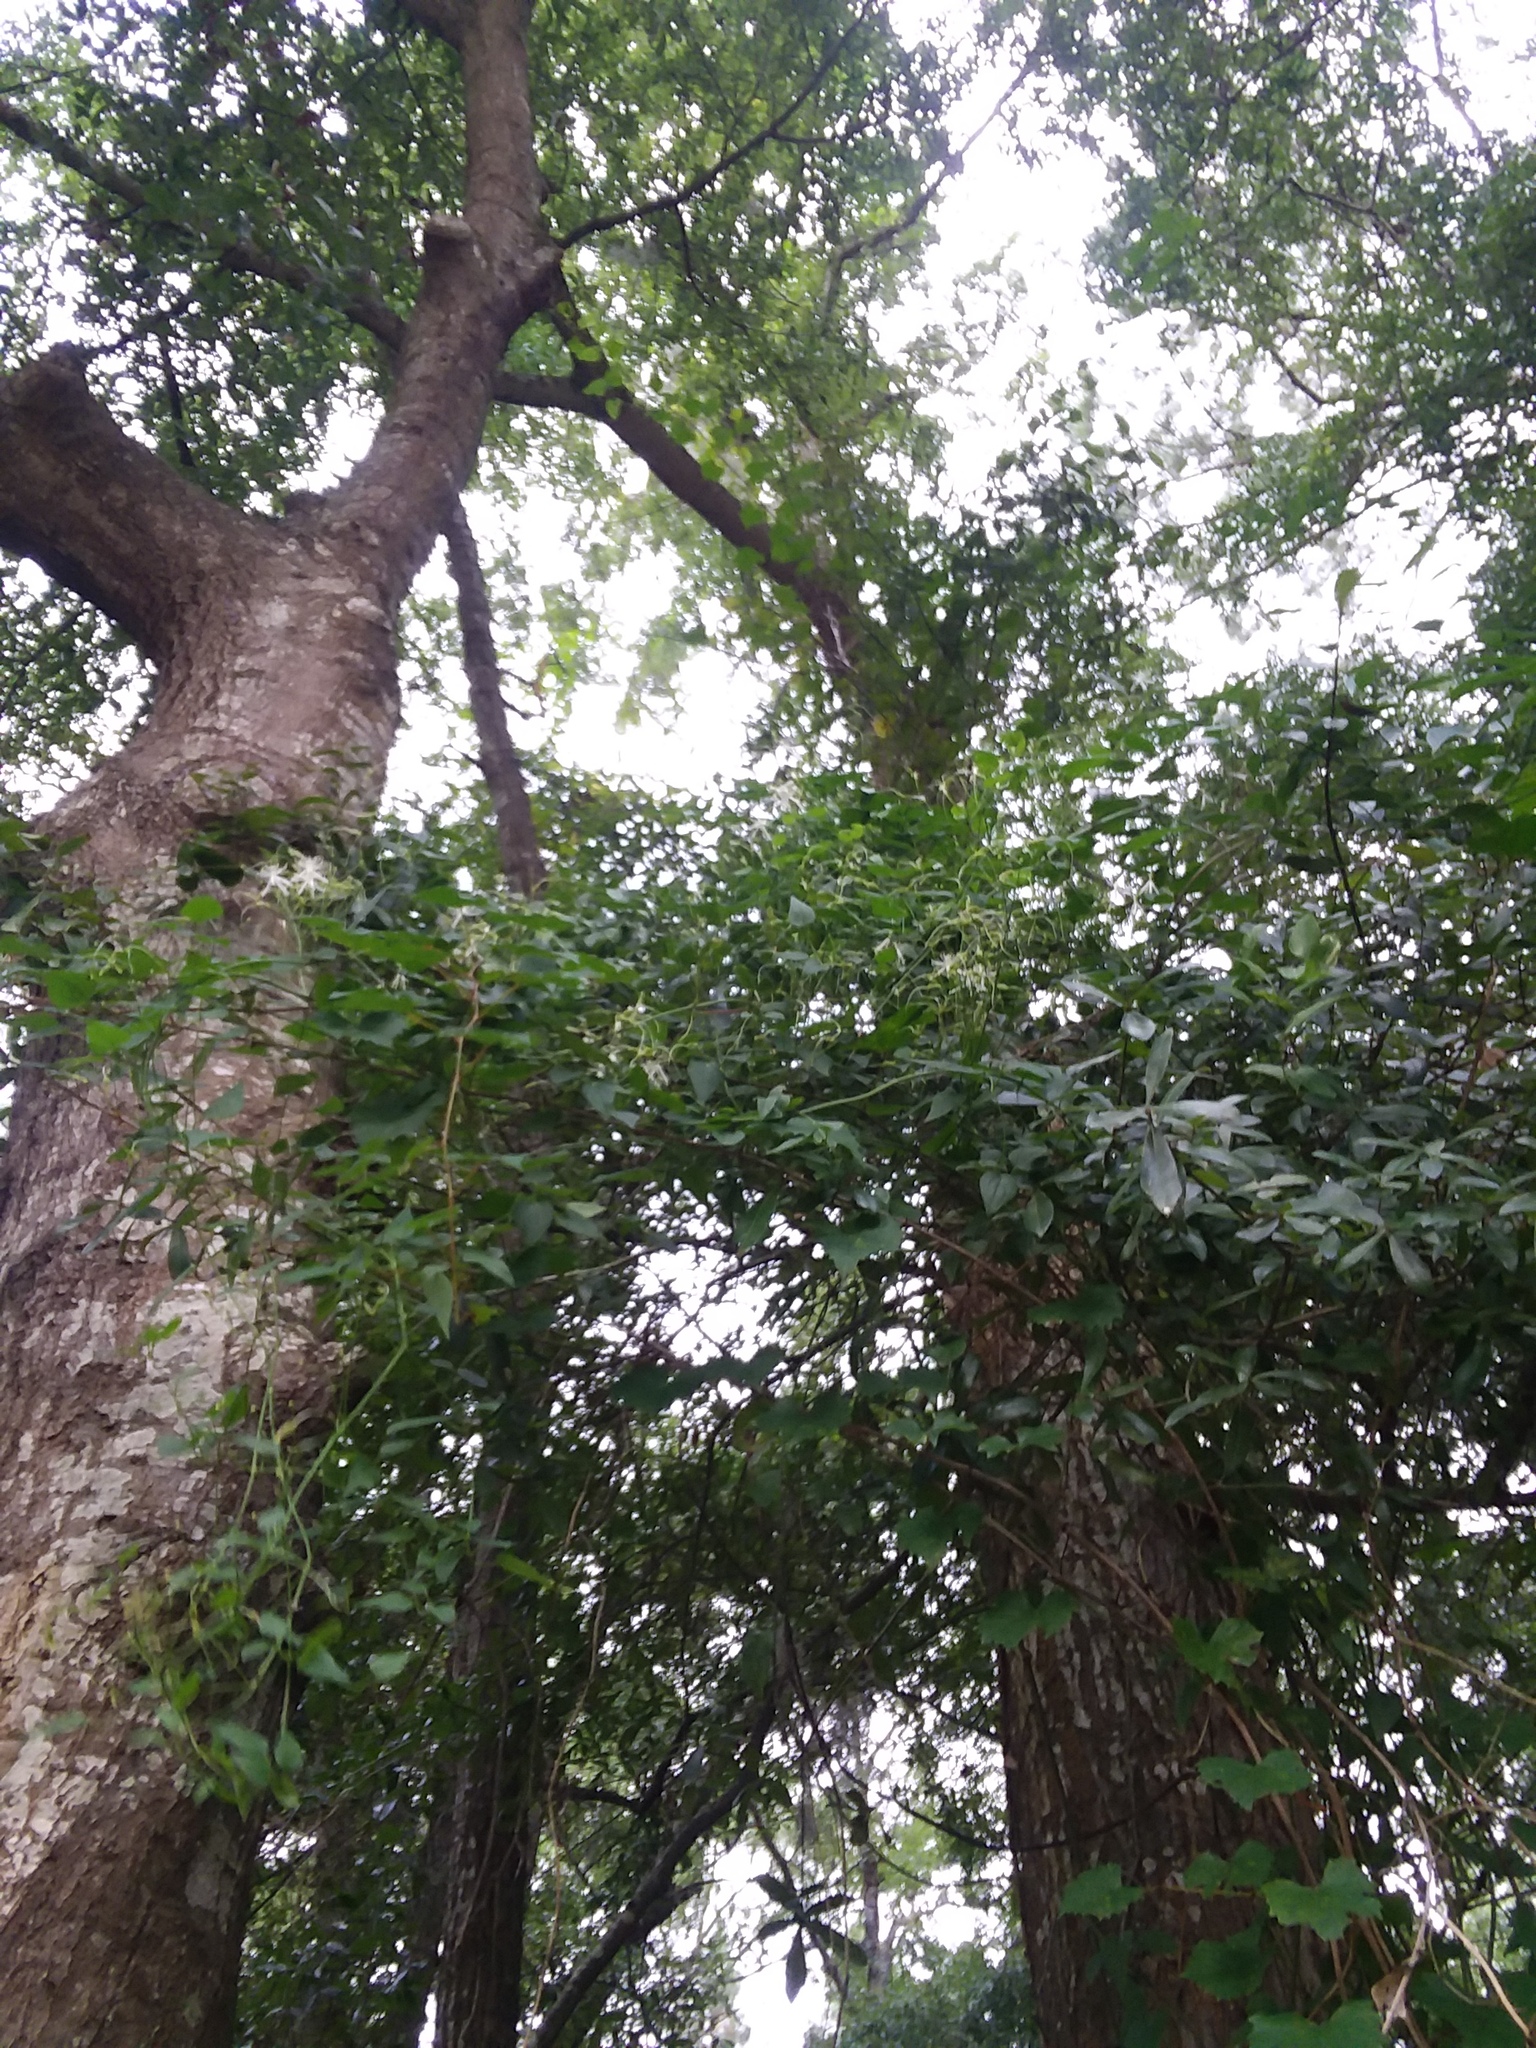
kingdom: Plantae
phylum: Tracheophyta
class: Magnoliopsida
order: Ranunculales
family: Ranunculaceae
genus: Clematis
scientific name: Clematis terniflora
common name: Sweet autumn clematis
